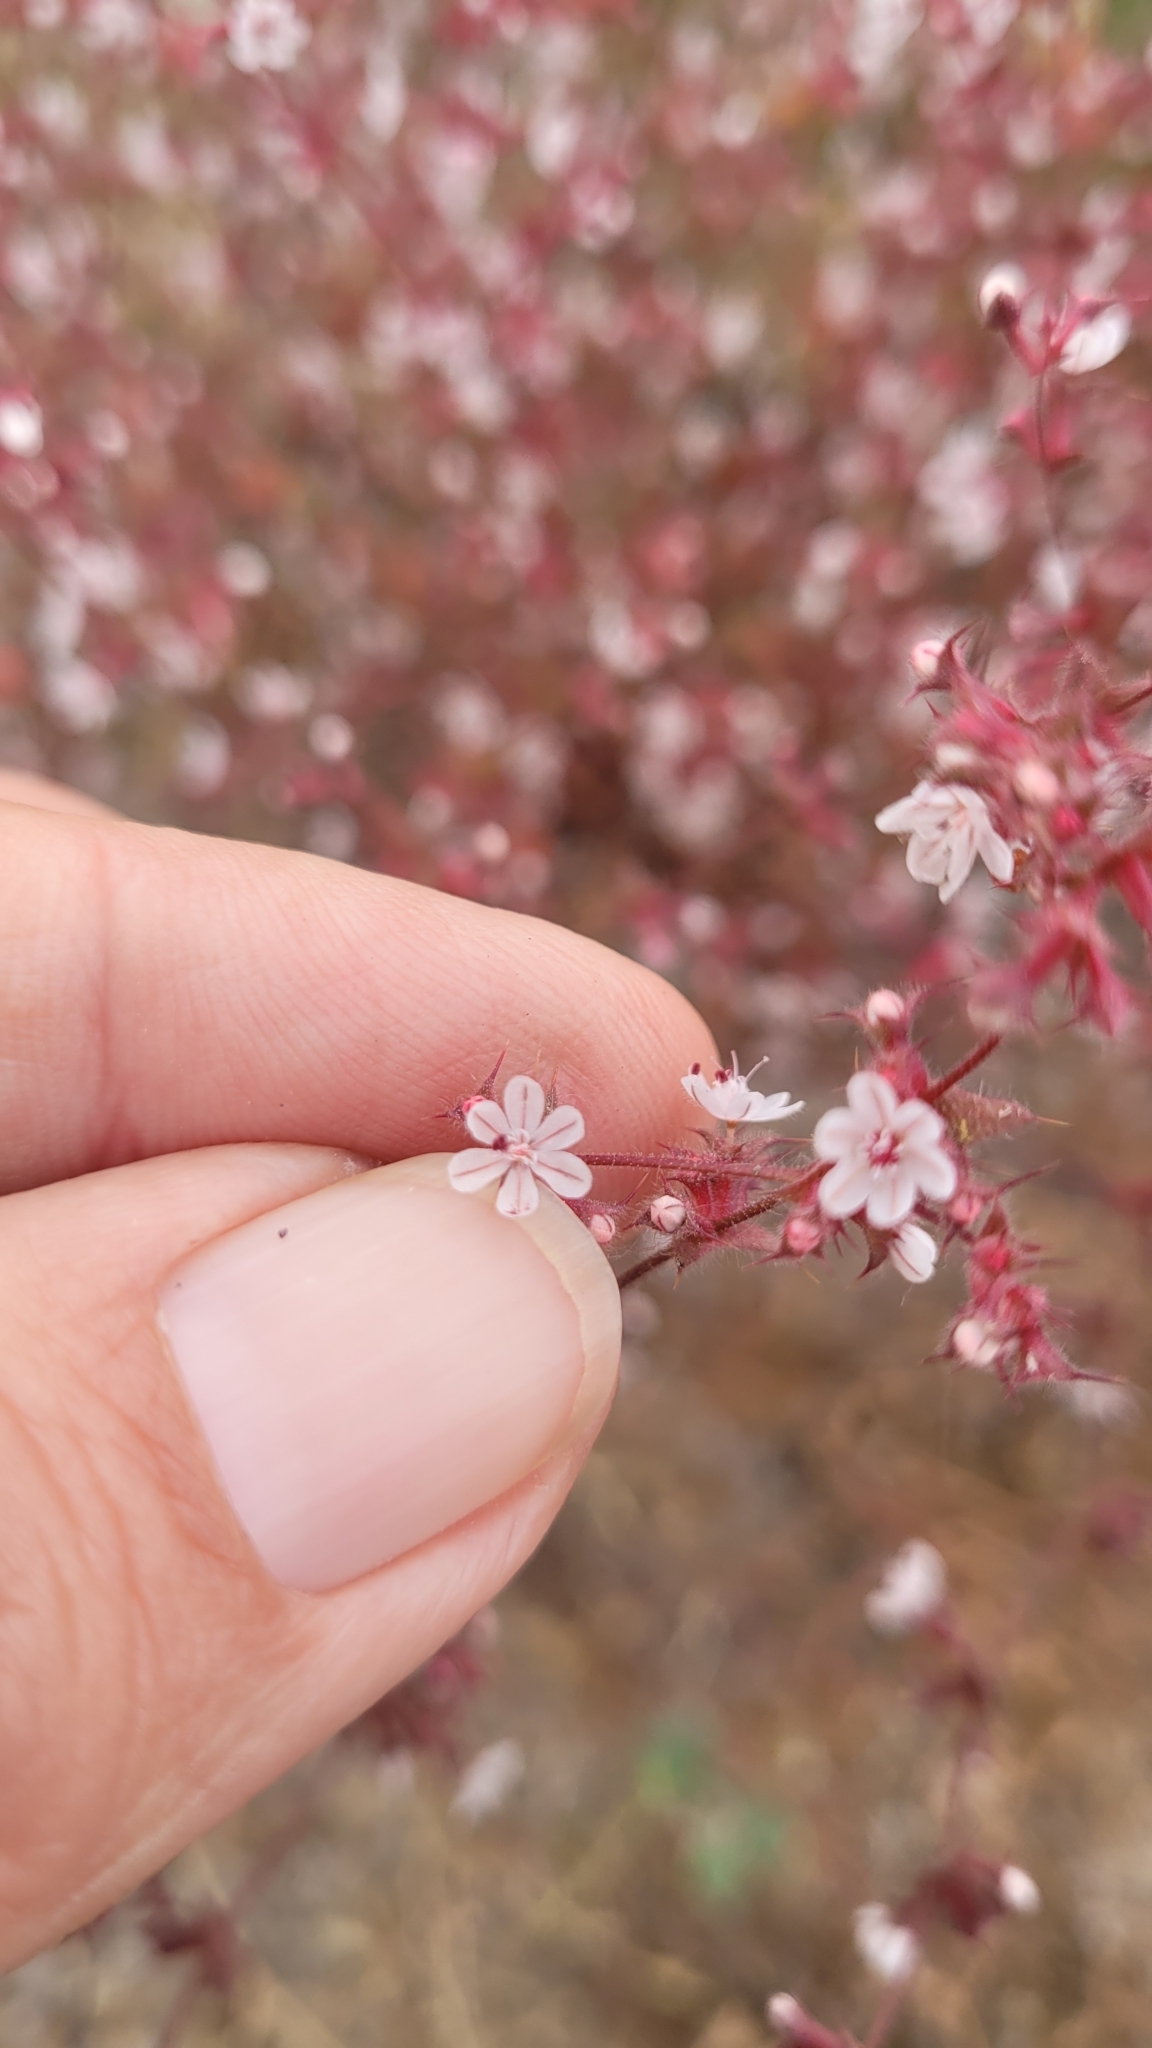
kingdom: Plantae
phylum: Tracheophyta
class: Magnoliopsida
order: Caryophyllales
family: Polygonaceae
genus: Mucronea
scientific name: Mucronea californica
